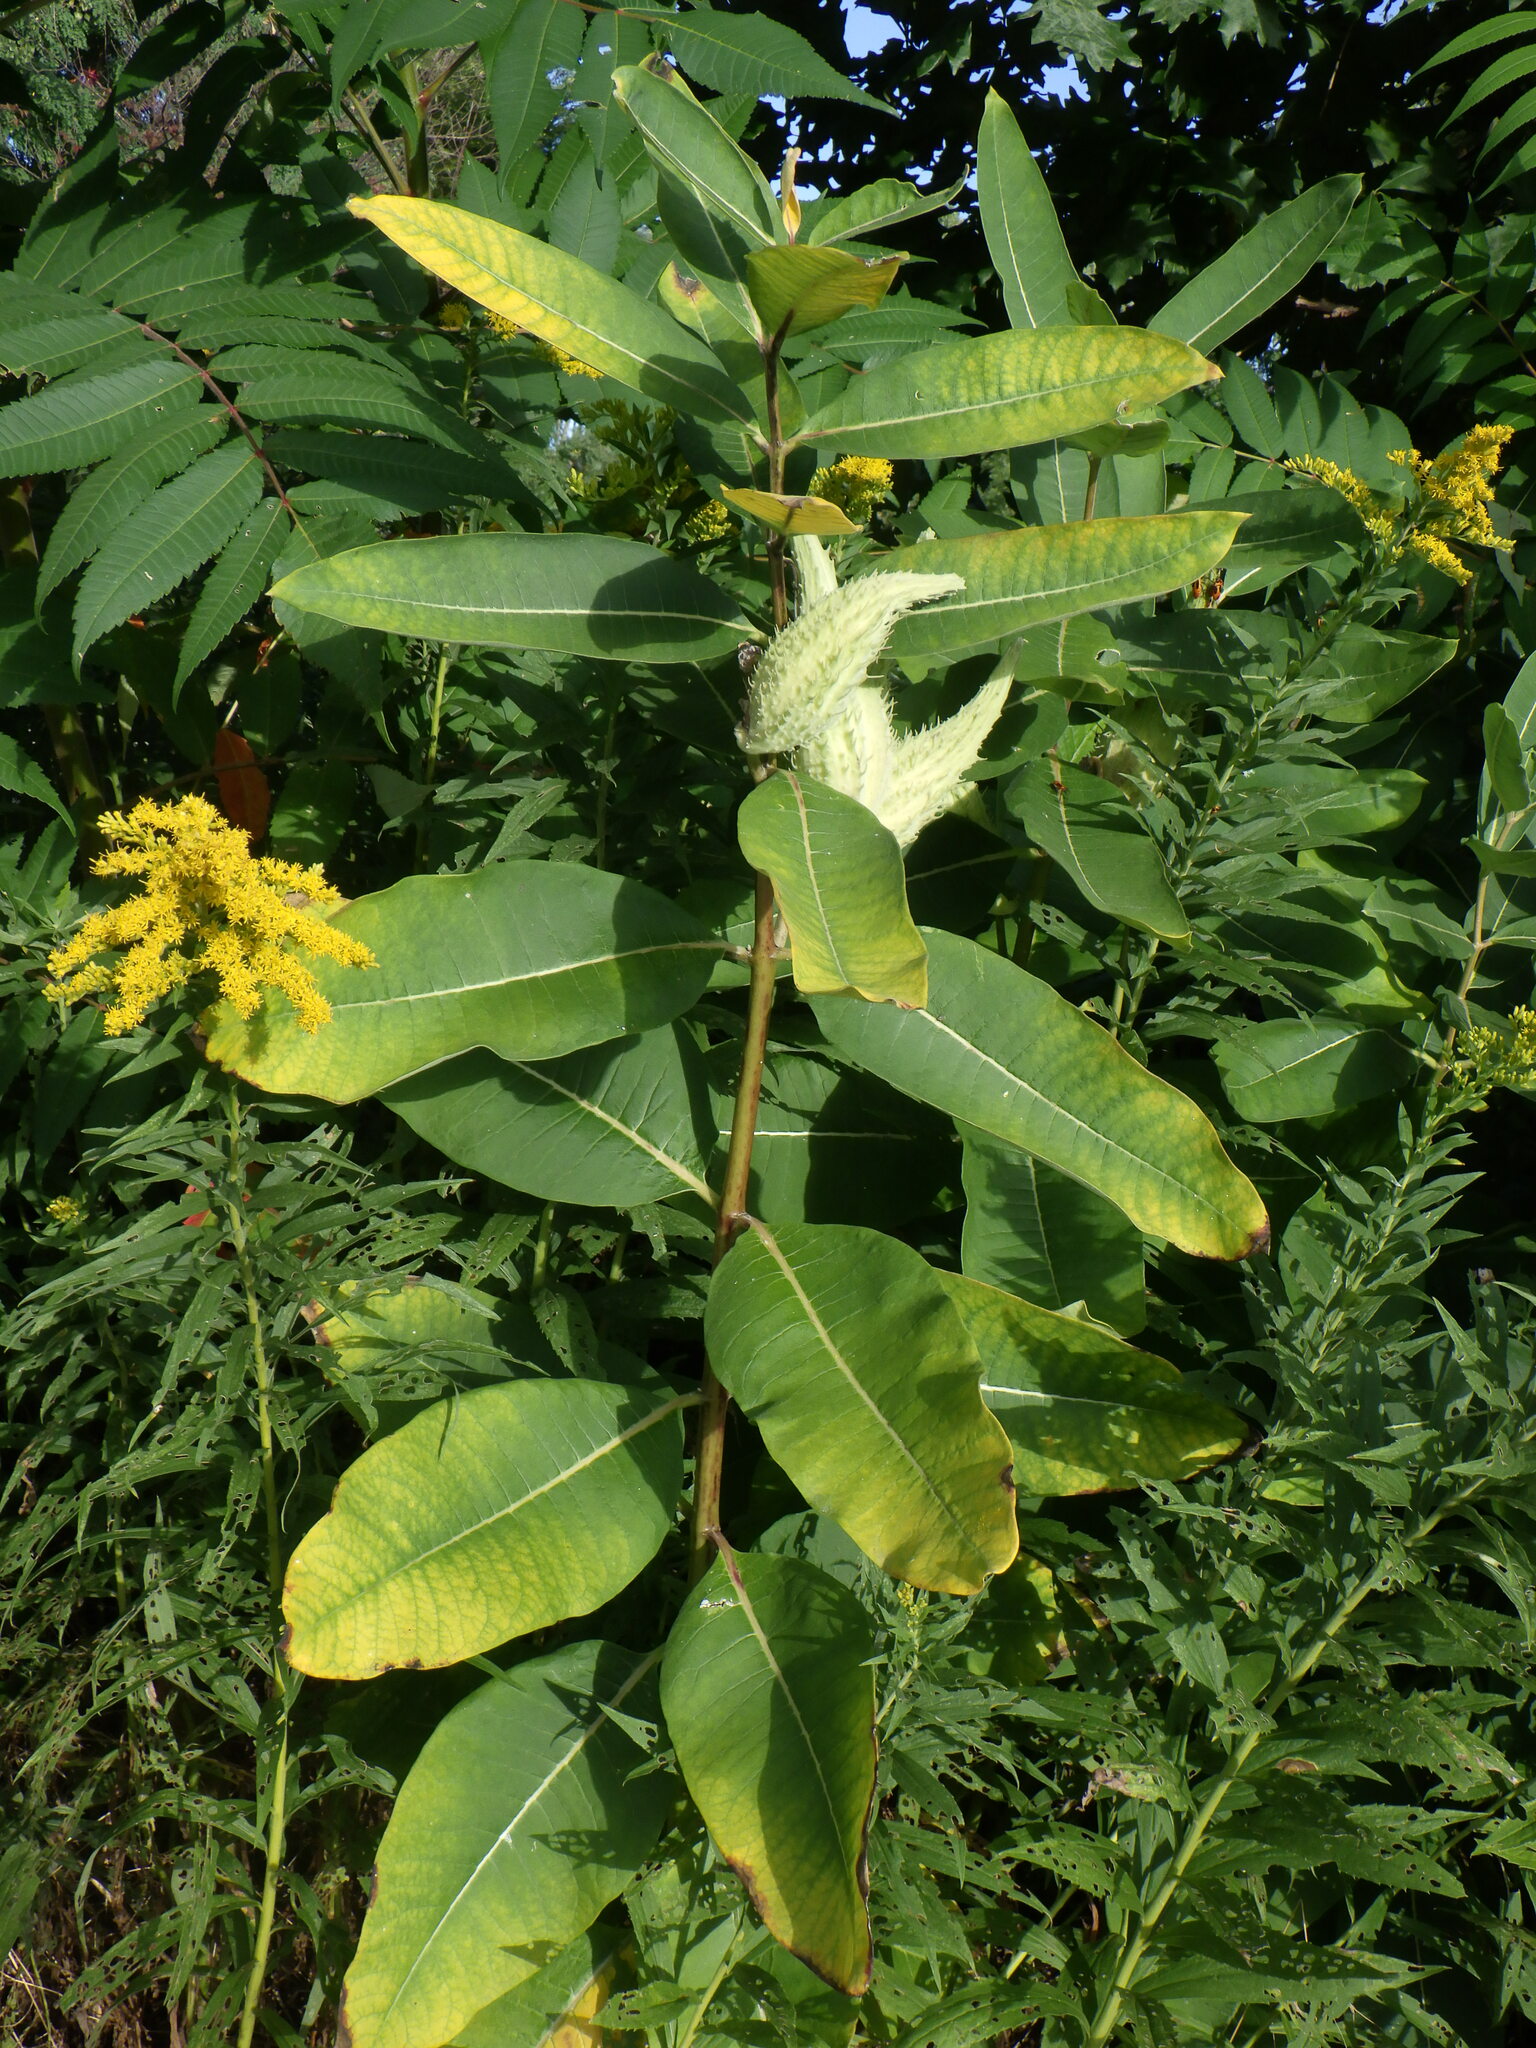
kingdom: Plantae
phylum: Tracheophyta
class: Magnoliopsida
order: Gentianales
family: Apocynaceae
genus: Asclepias
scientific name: Asclepias syriaca
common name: Common milkweed
